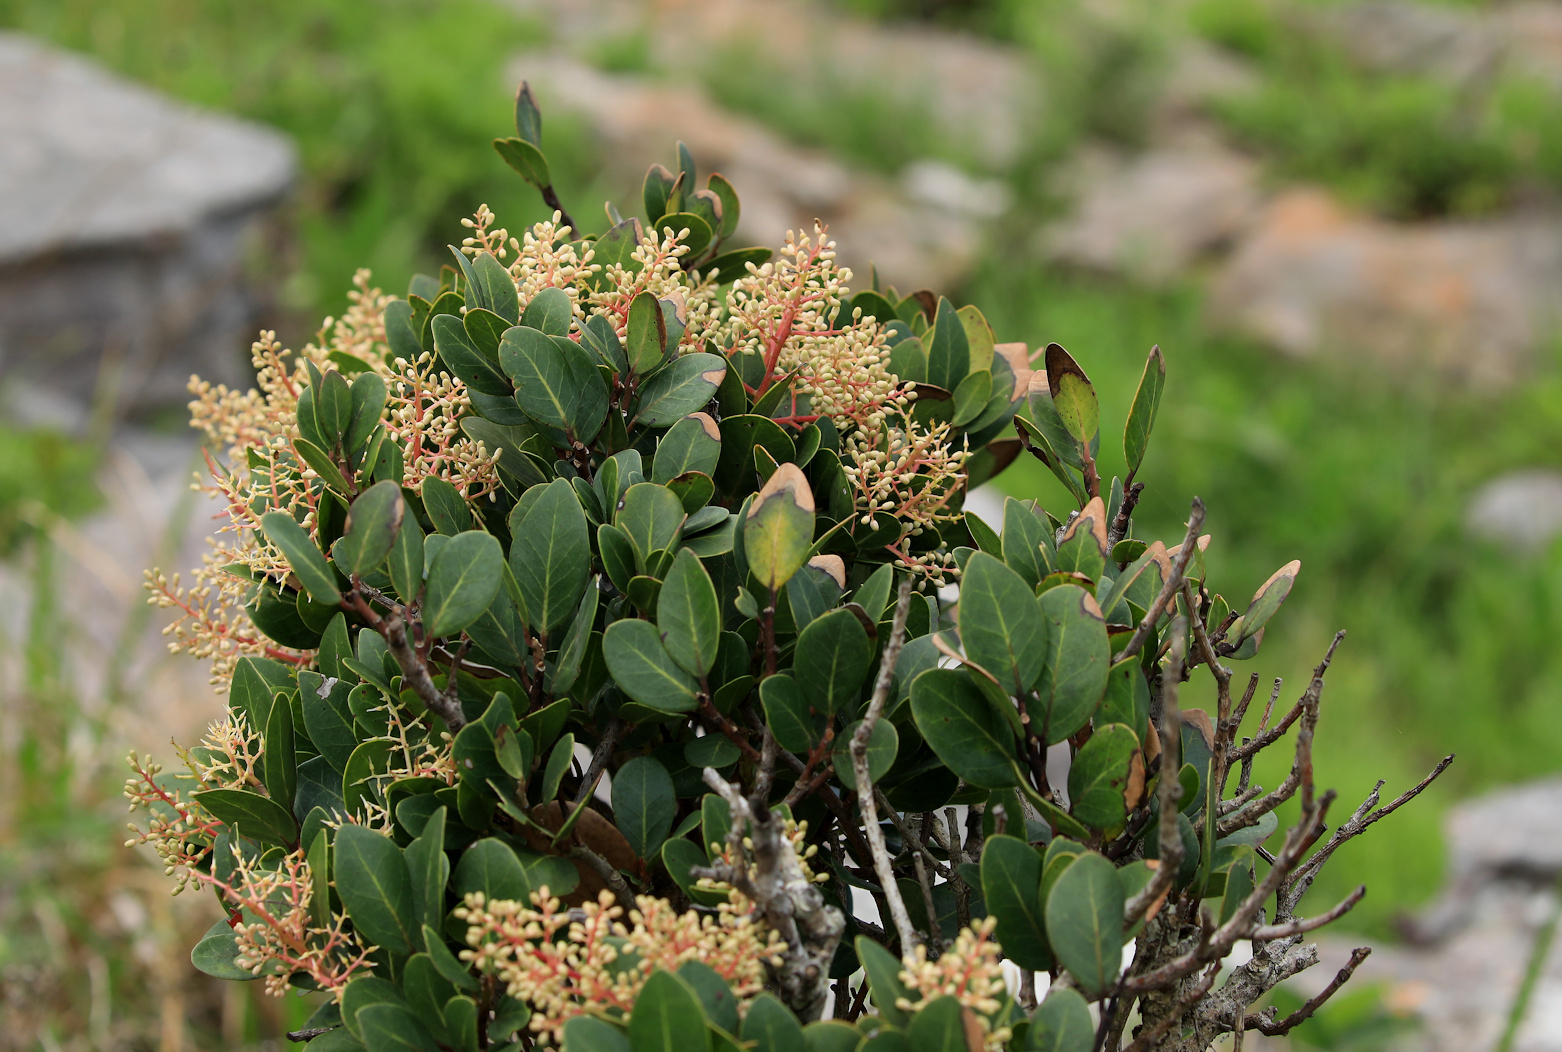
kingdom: Plantae
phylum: Tracheophyta
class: Magnoliopsida
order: Metteniusales
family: Metteniusaceae
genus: Apodytes
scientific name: Apodytes abbottii
